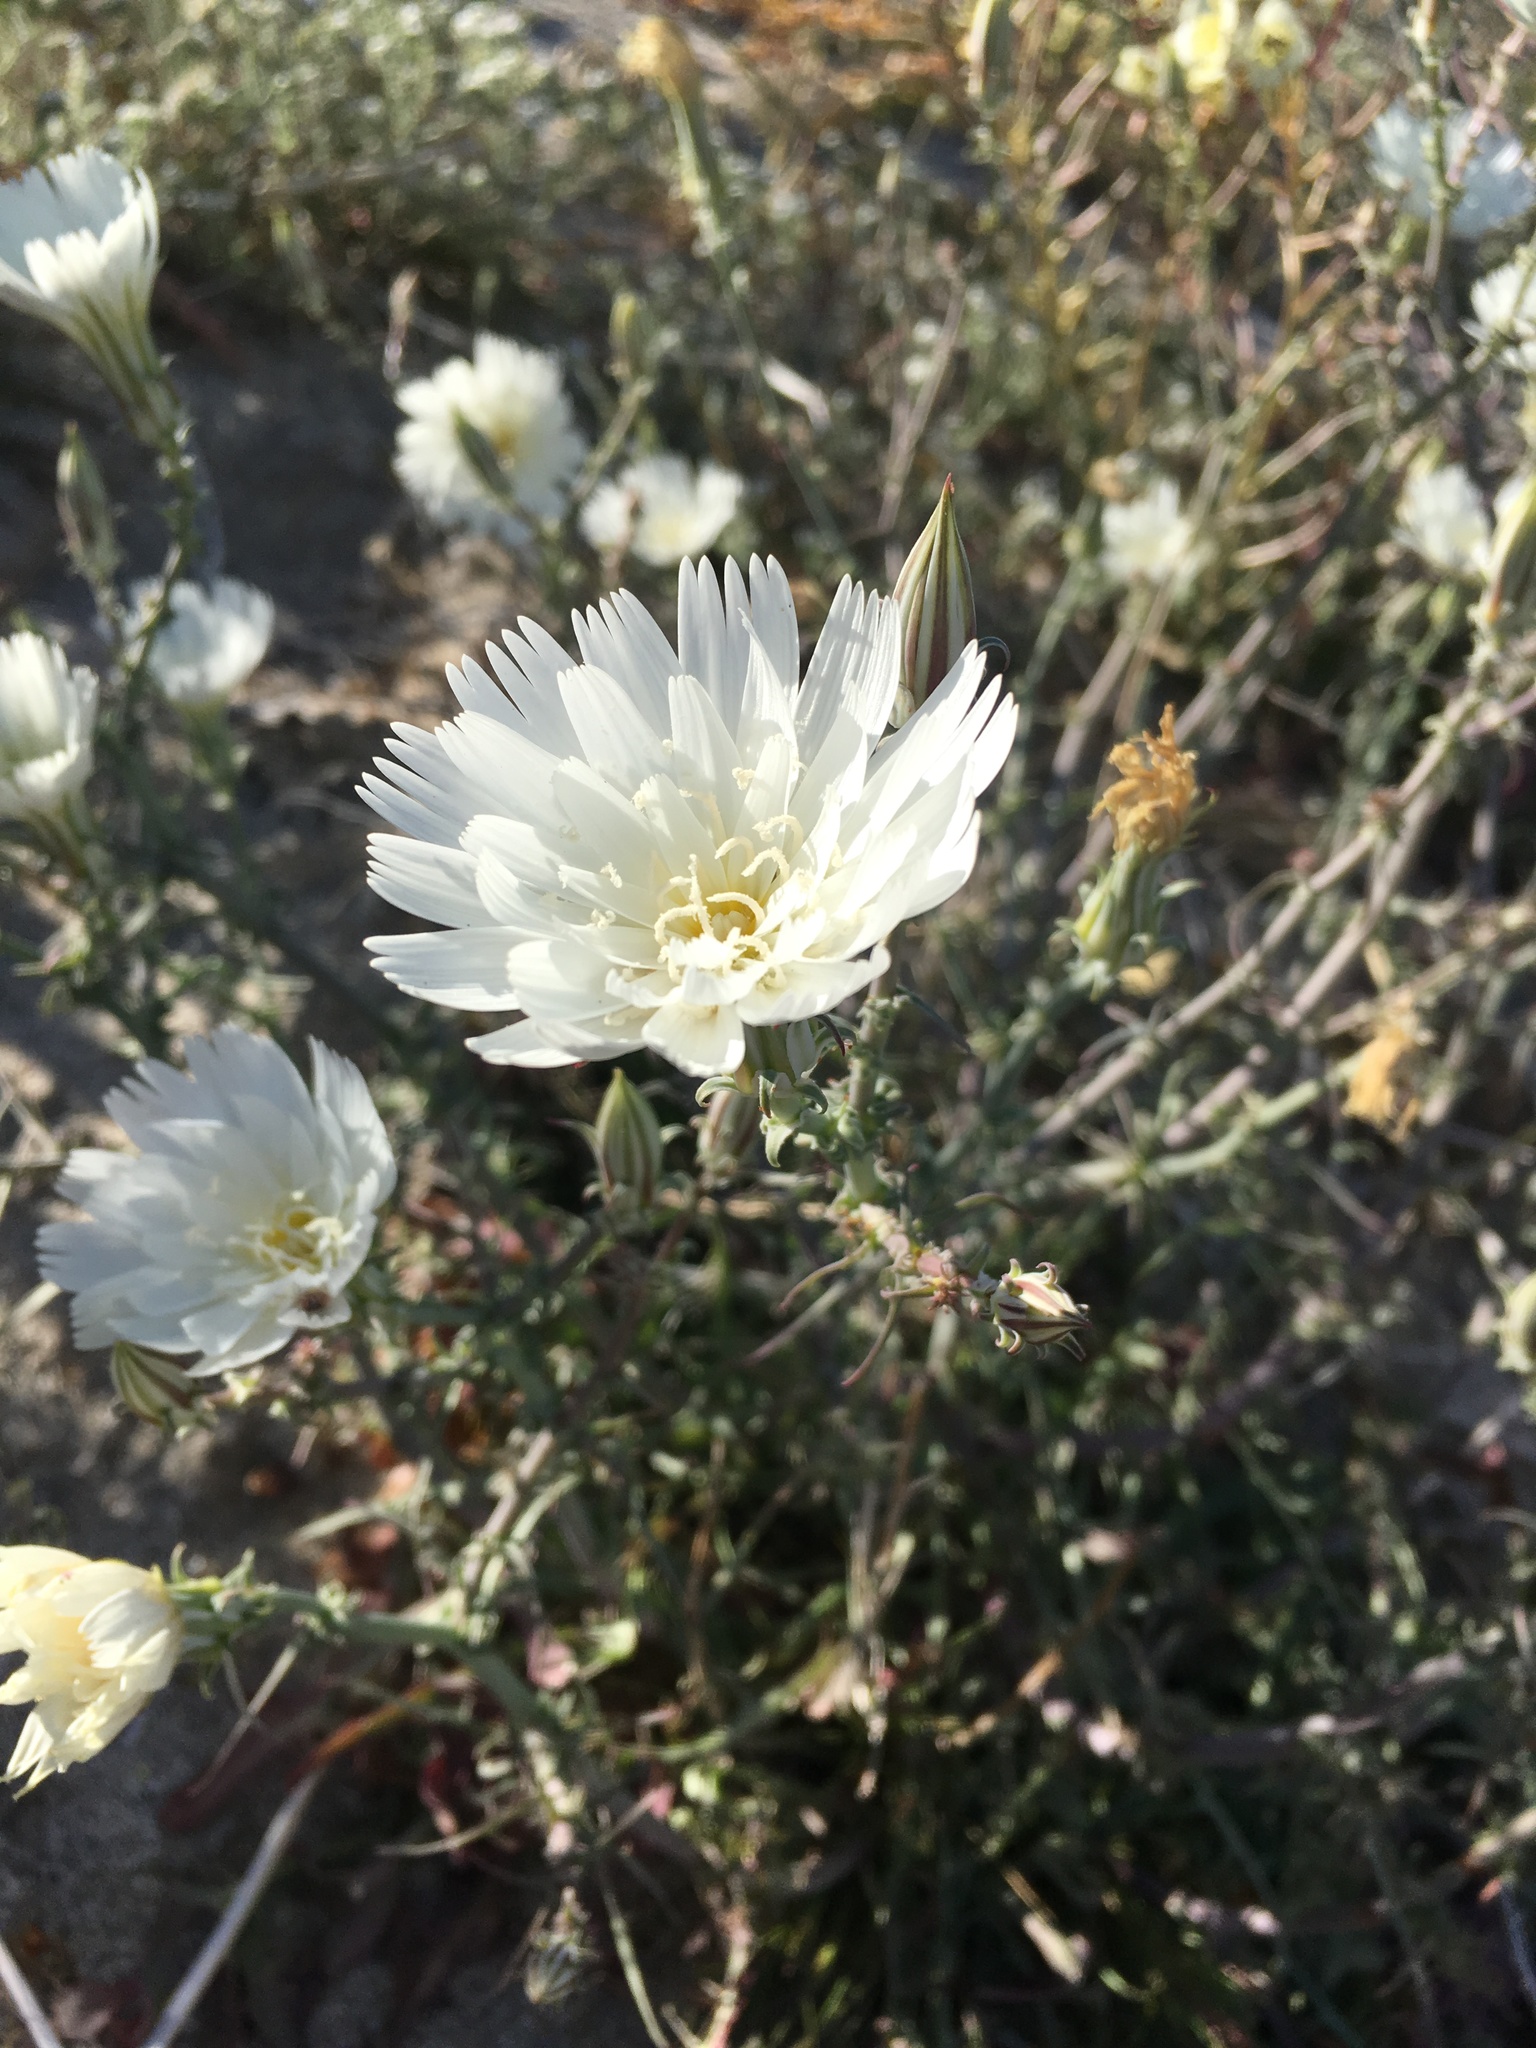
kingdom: Plantae
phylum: Tracheophyta
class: Magnoliopsida
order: Asterales
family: Asteraceae
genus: Rafinesquia
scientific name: Rafinesquia neomexicana
